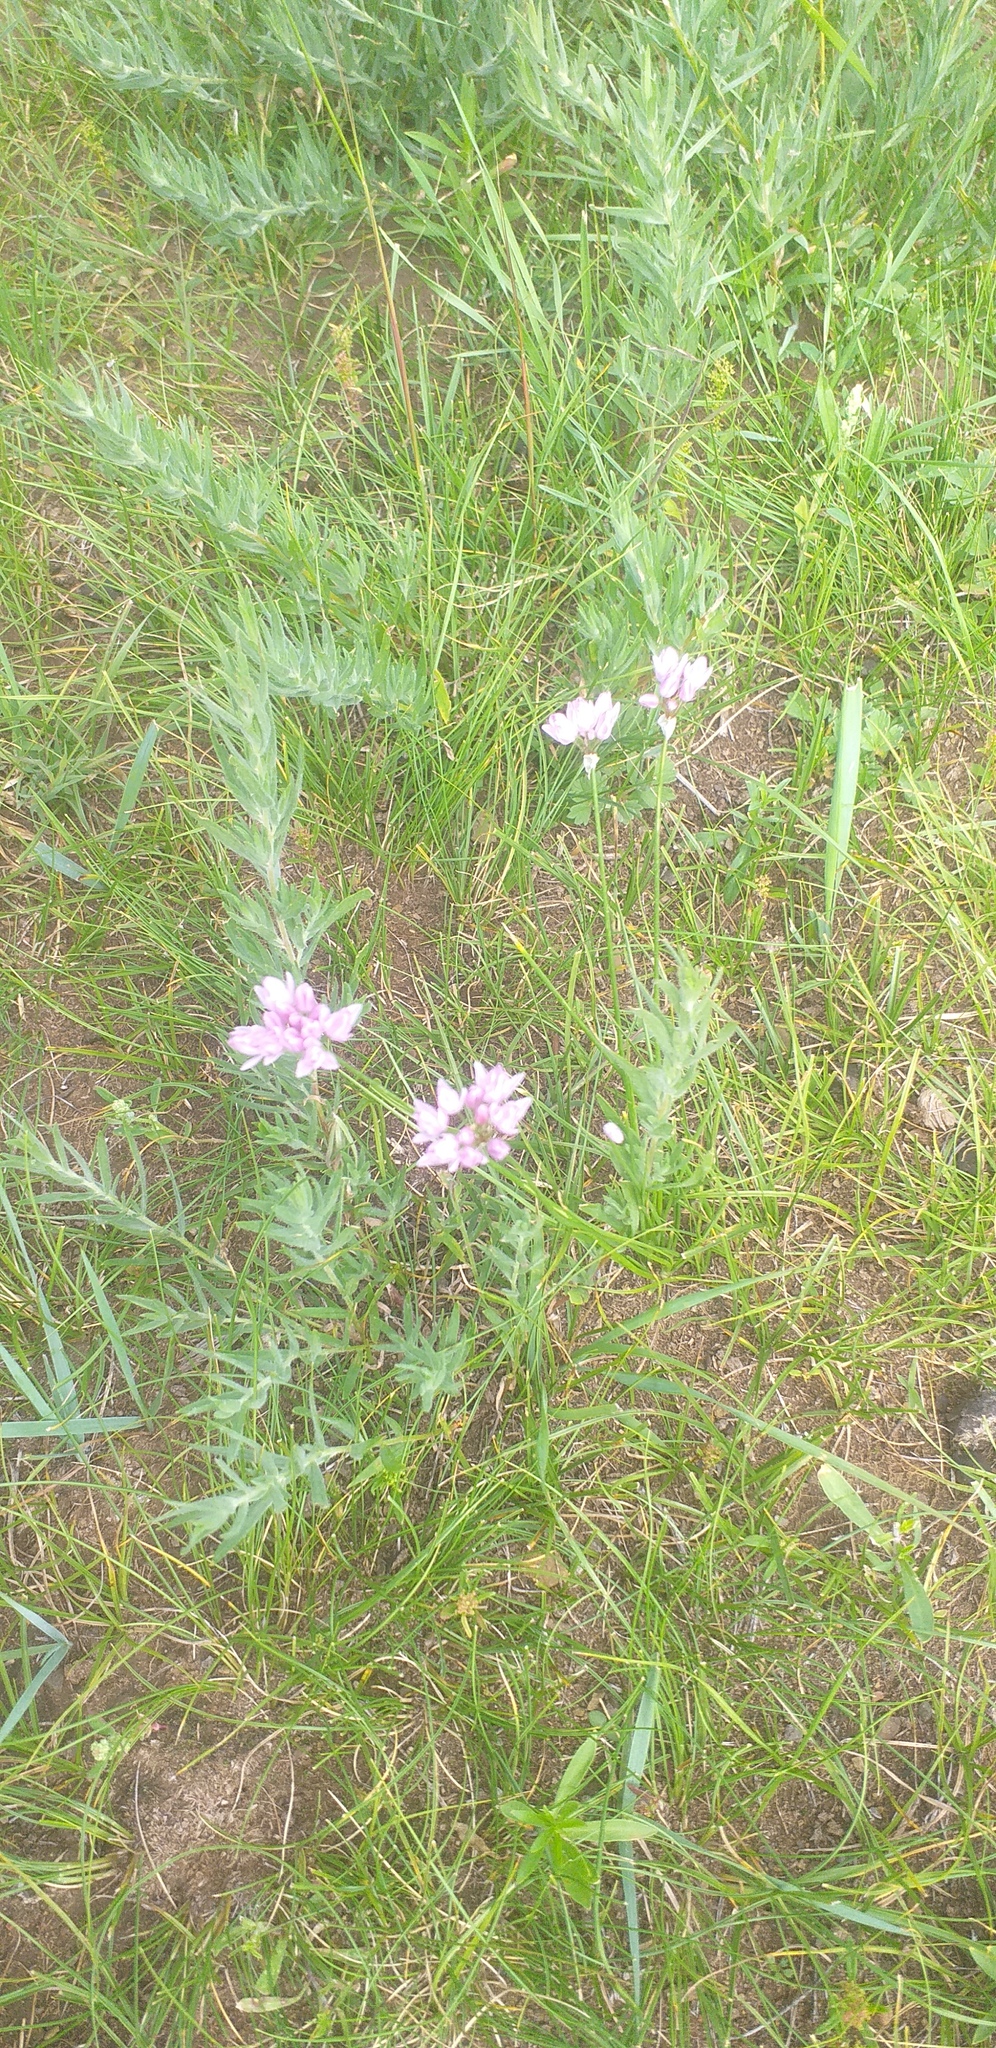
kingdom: Plantae
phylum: Tracheophyta
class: Liliopsida
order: Asparagales
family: Amaryllidaceae
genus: Allium
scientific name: Allium bidentatum
